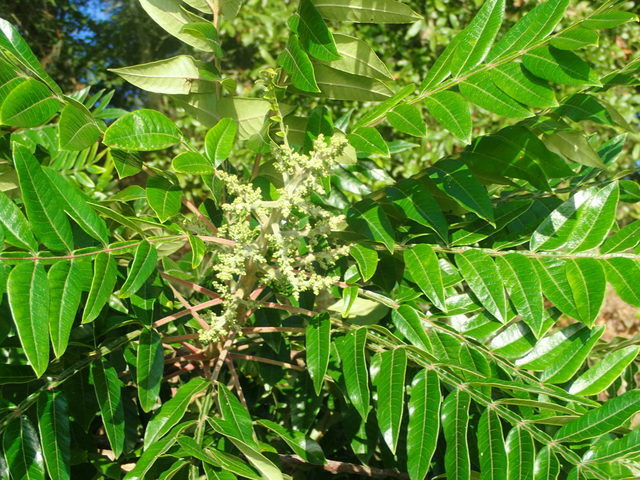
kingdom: Plantae
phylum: Tracheophyta
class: Magnoliopsida
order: Sapindales
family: Anacardiaceae
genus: Rhus
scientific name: Rhus copallina
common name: Shining sumac
